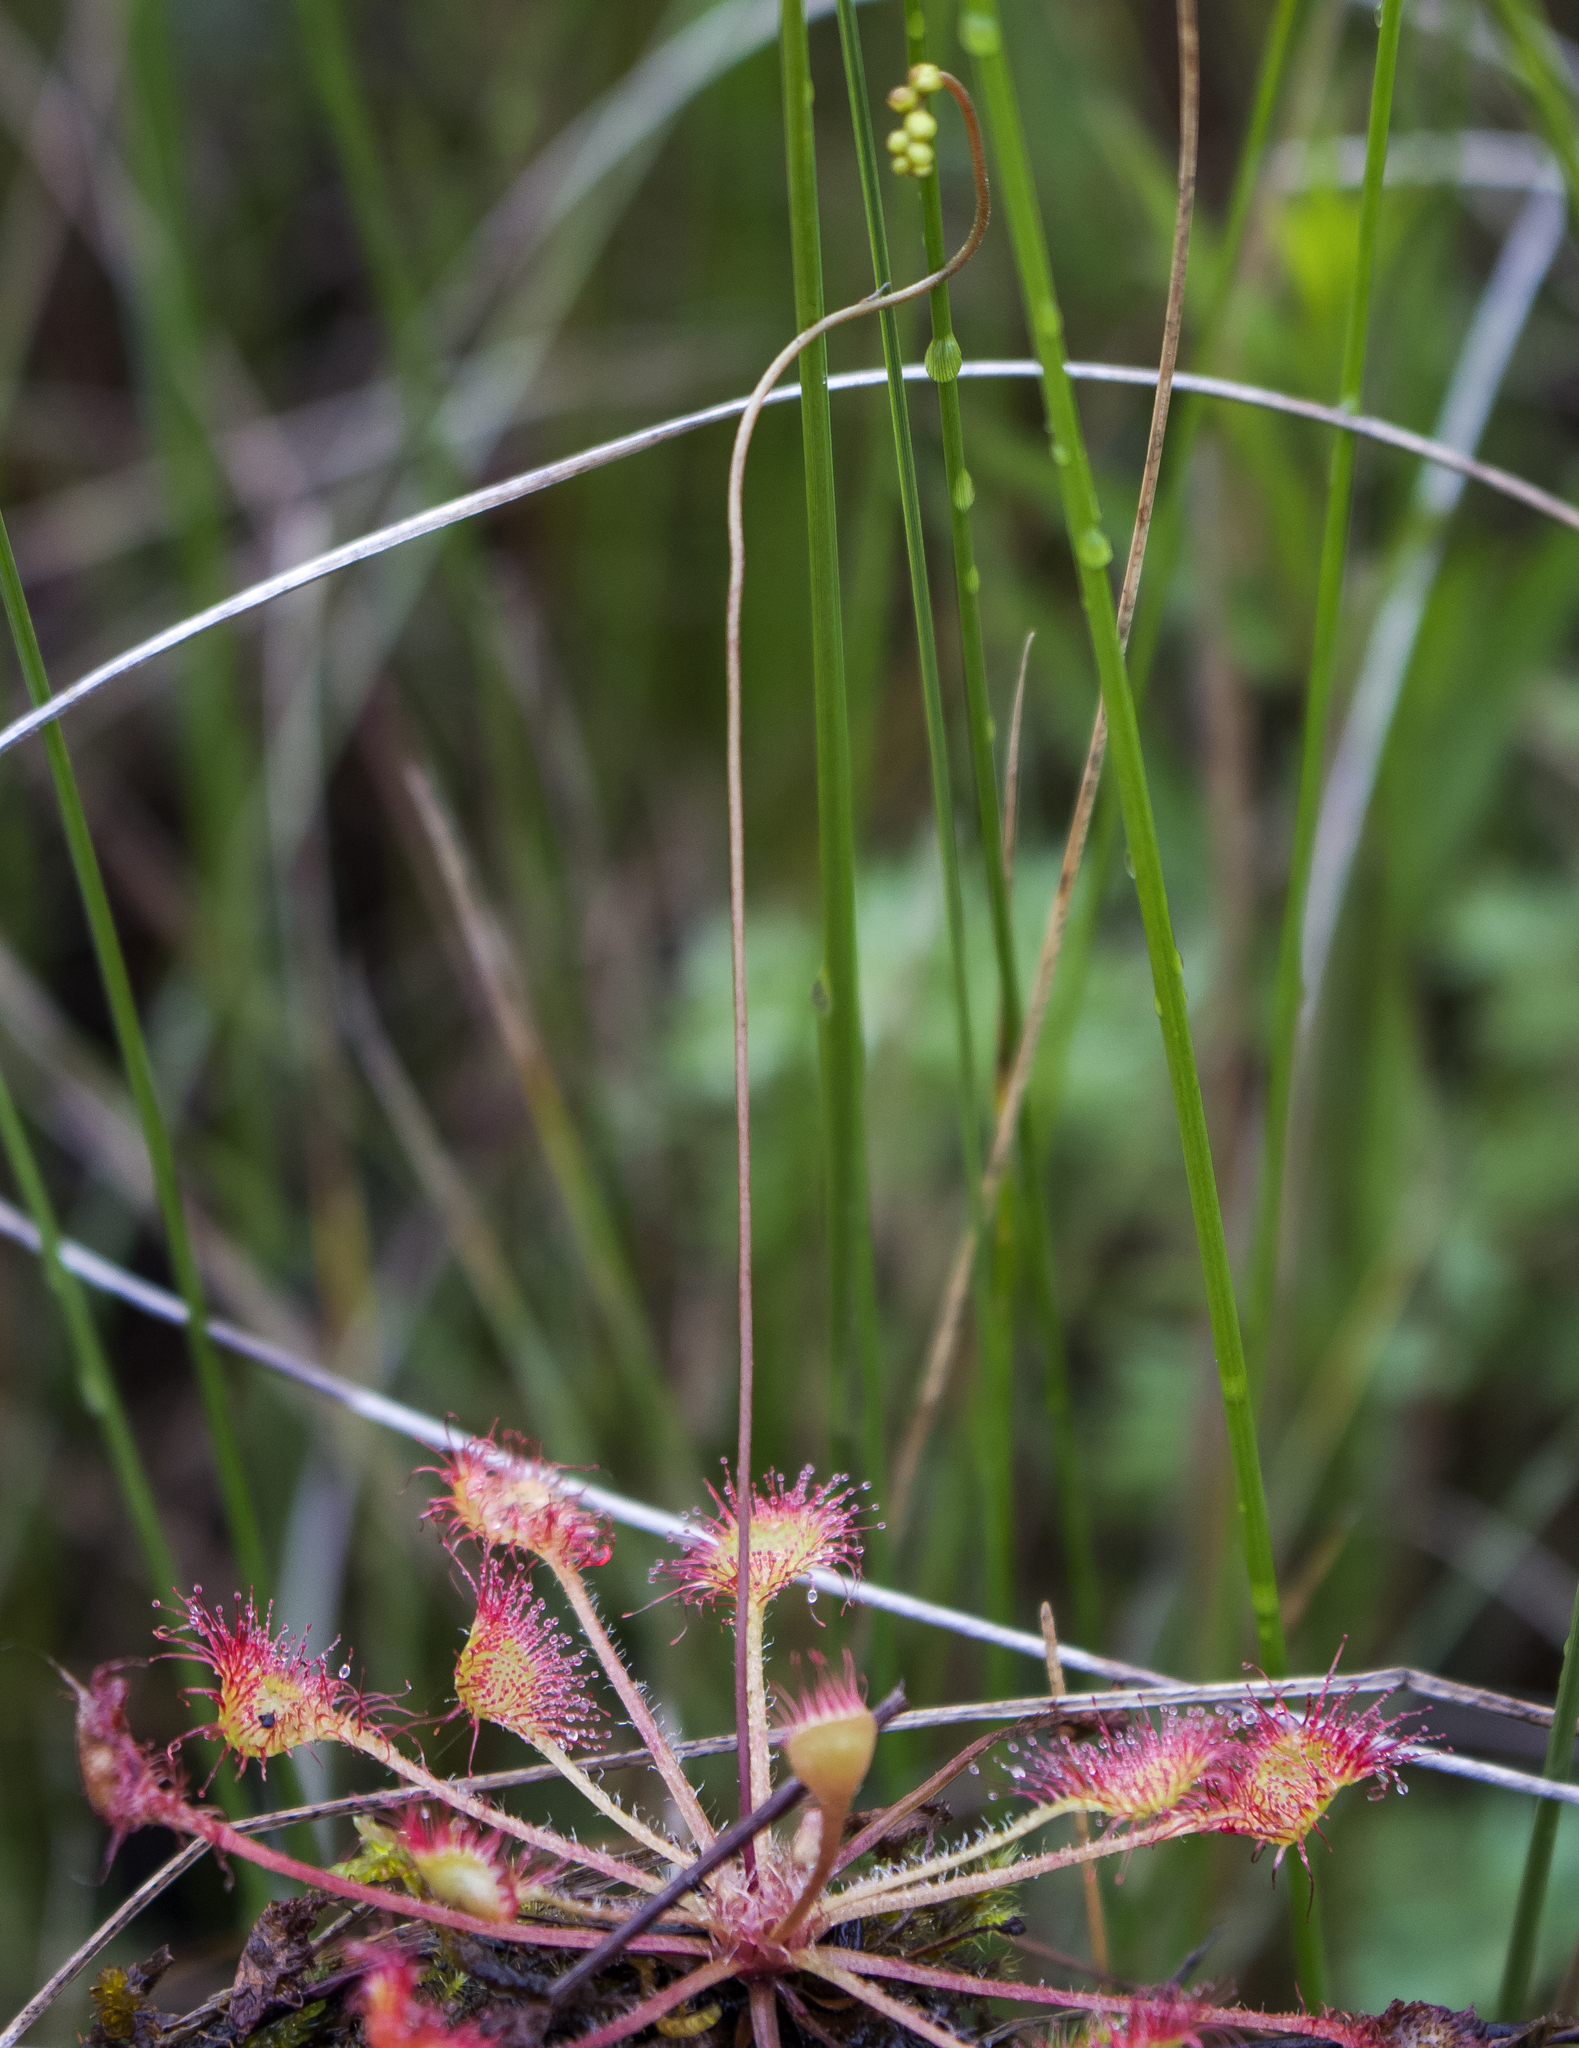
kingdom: Plantae
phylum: Tracheophyta
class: Magnoliopsida
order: Caryophyllales
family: Droseraceae
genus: Drosera
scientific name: Drosera rotundifolia
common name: Round-leaved sundew
